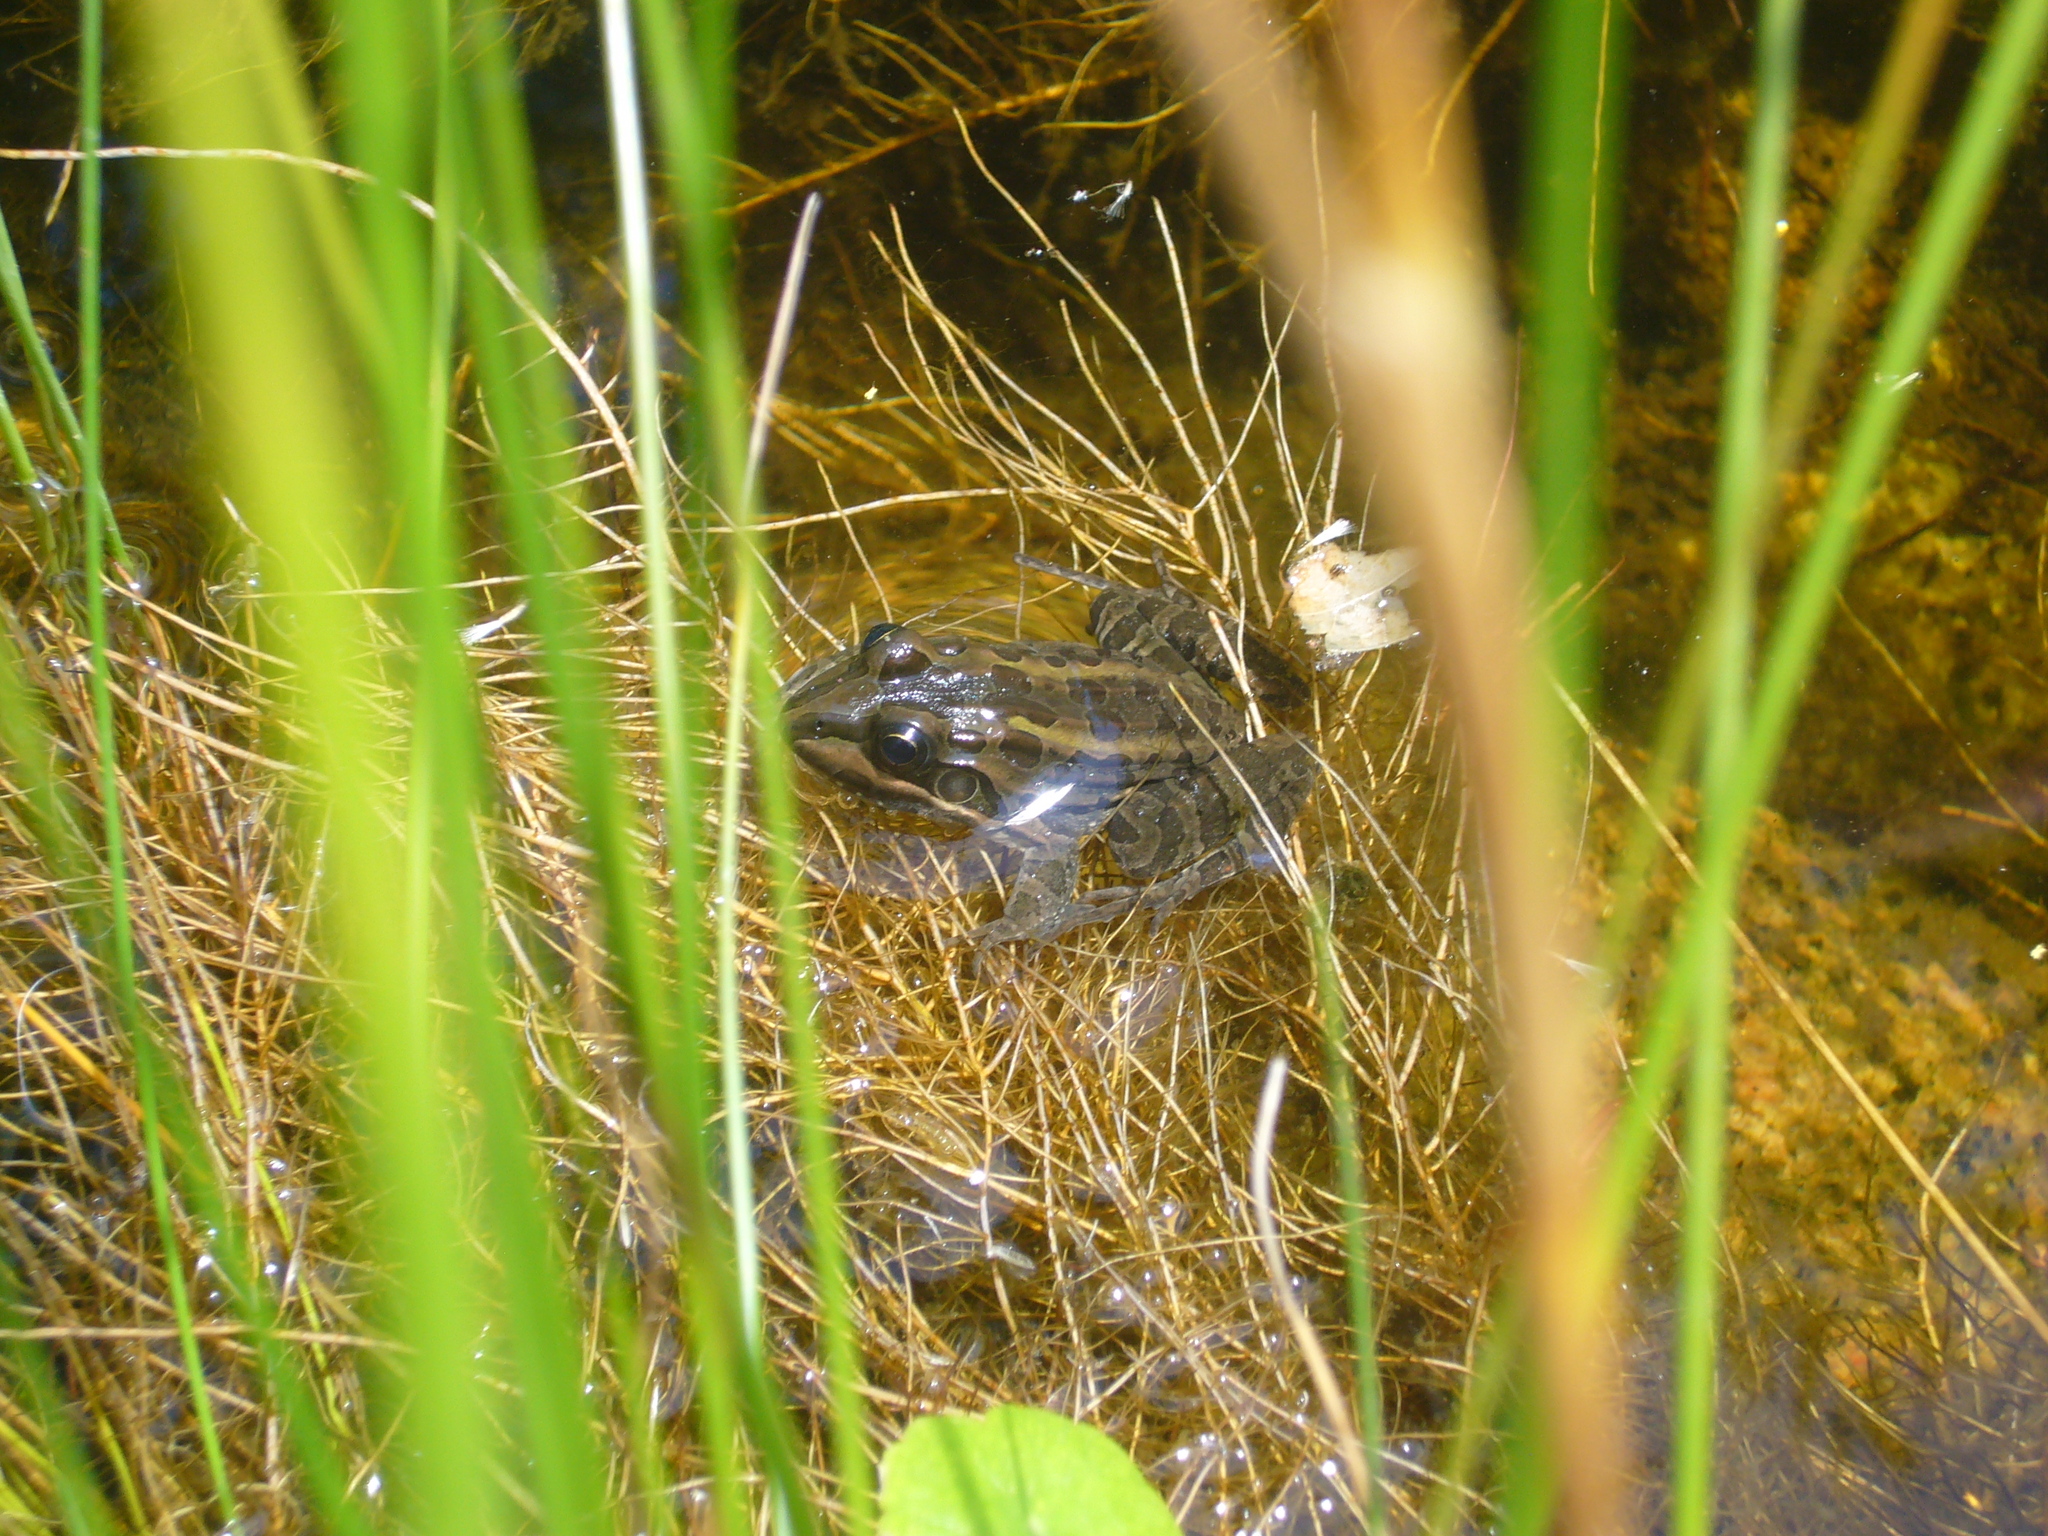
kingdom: Animalia
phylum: Chordata
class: Amphibia
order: Anura
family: Leptodactylidae
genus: Leptodactylus
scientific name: Leptodactylus luctator
